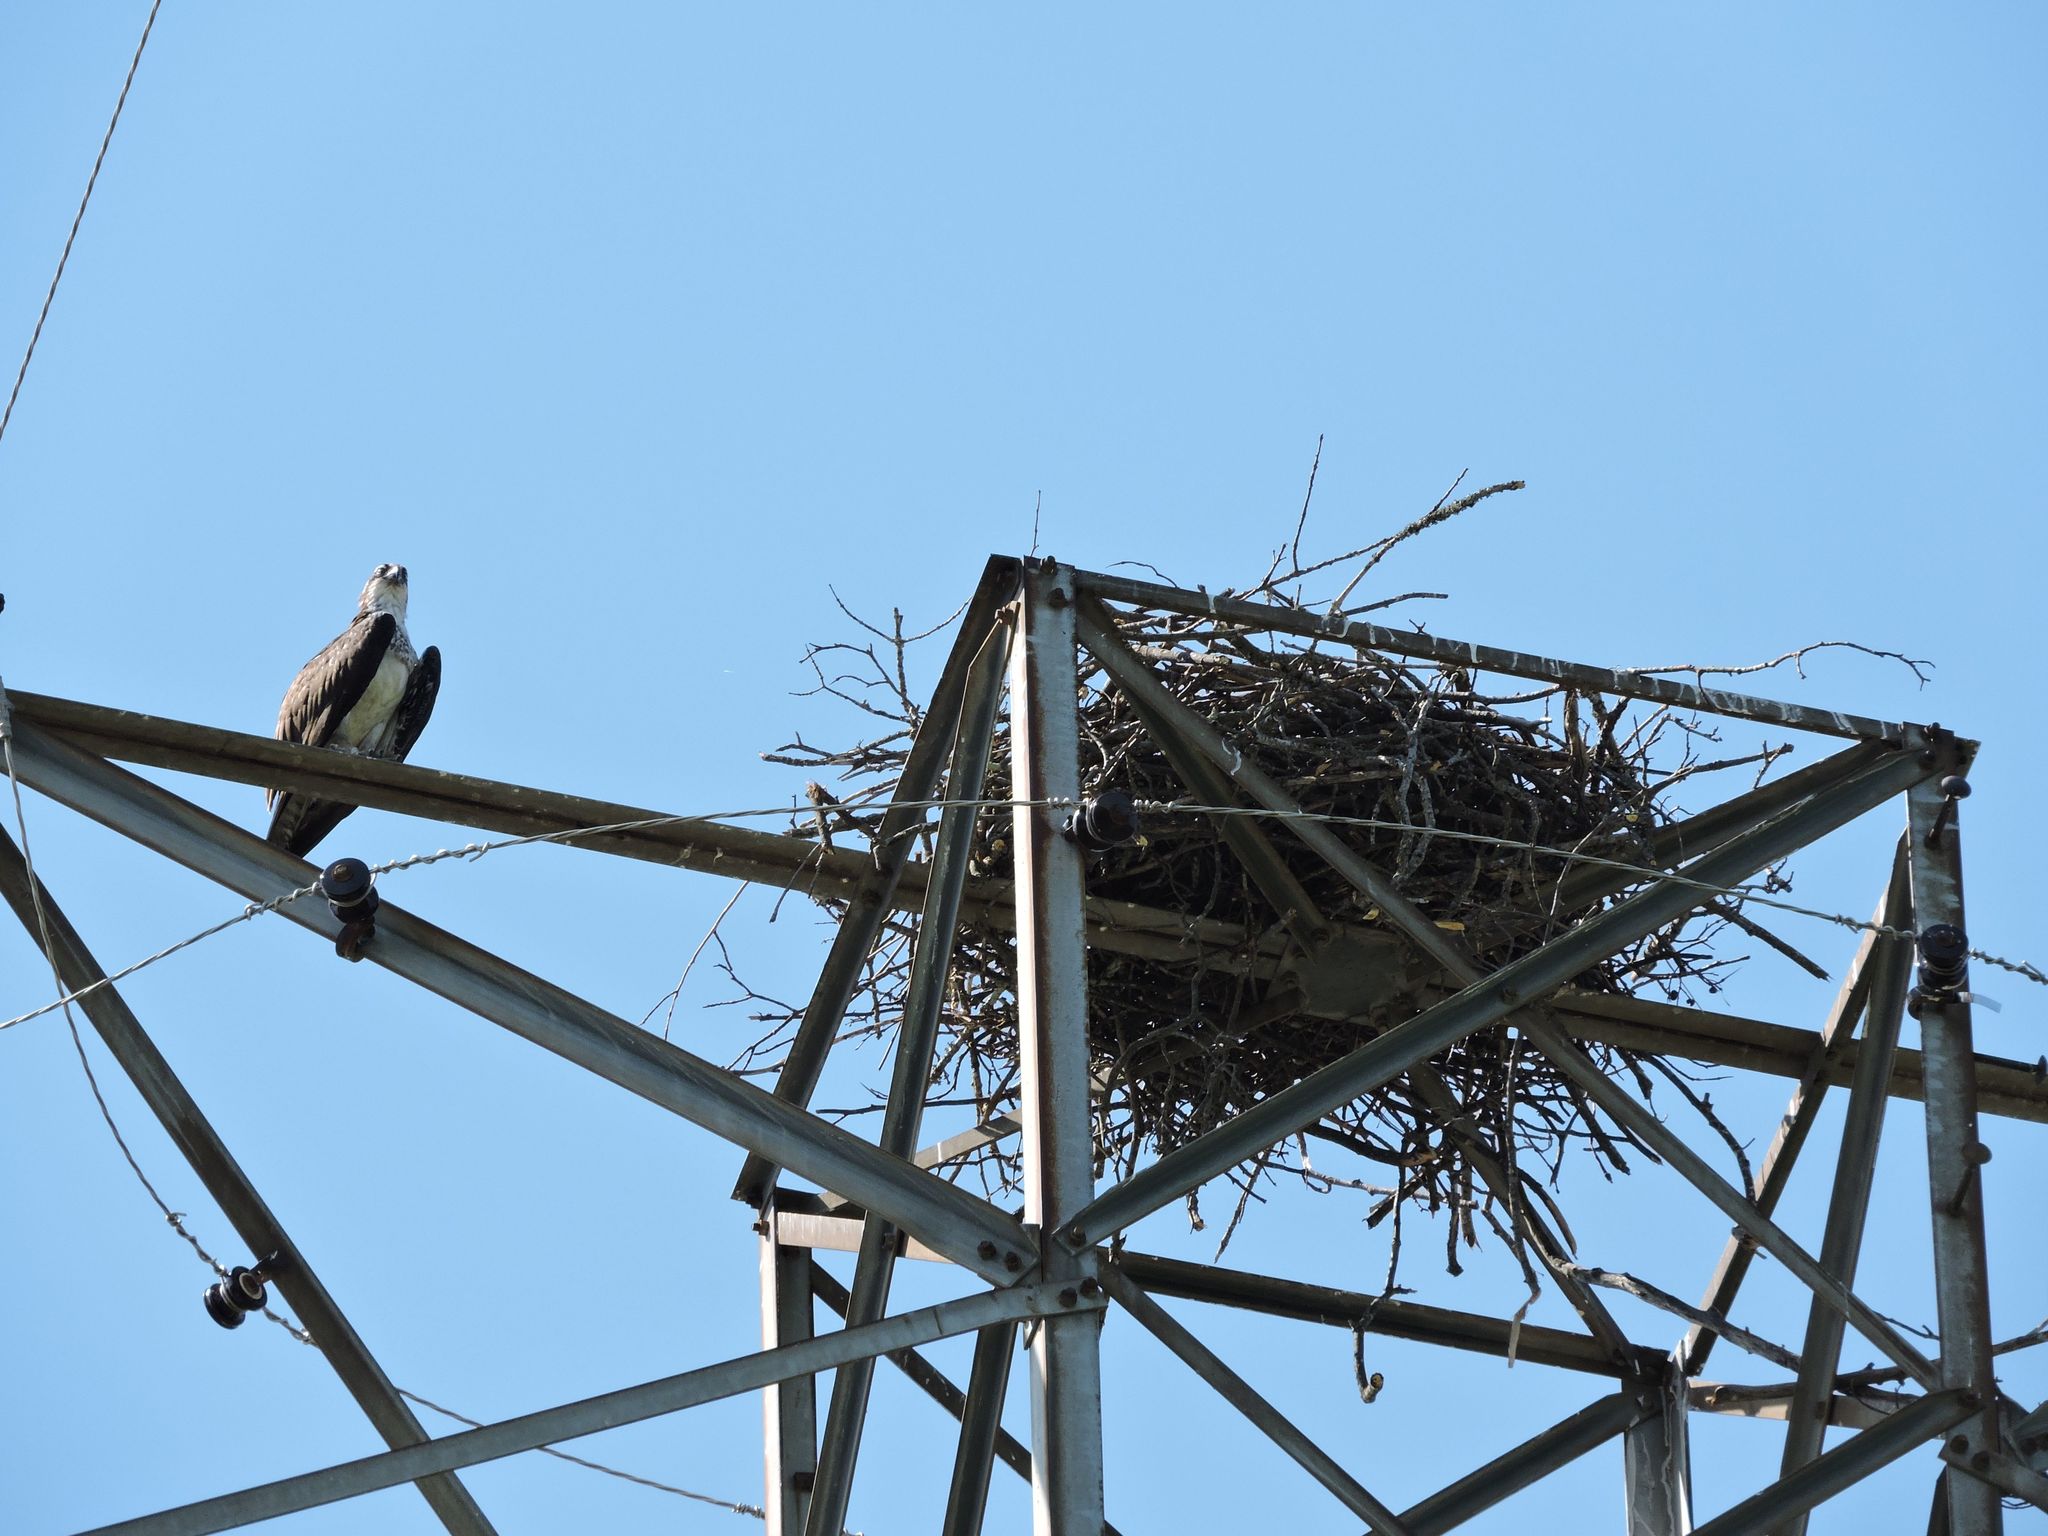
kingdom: Animalia
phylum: Chordata
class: Aves
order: Accipitriformes
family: Pandionidae
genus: Pandion
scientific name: Pandion haliaetus
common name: Osprey
